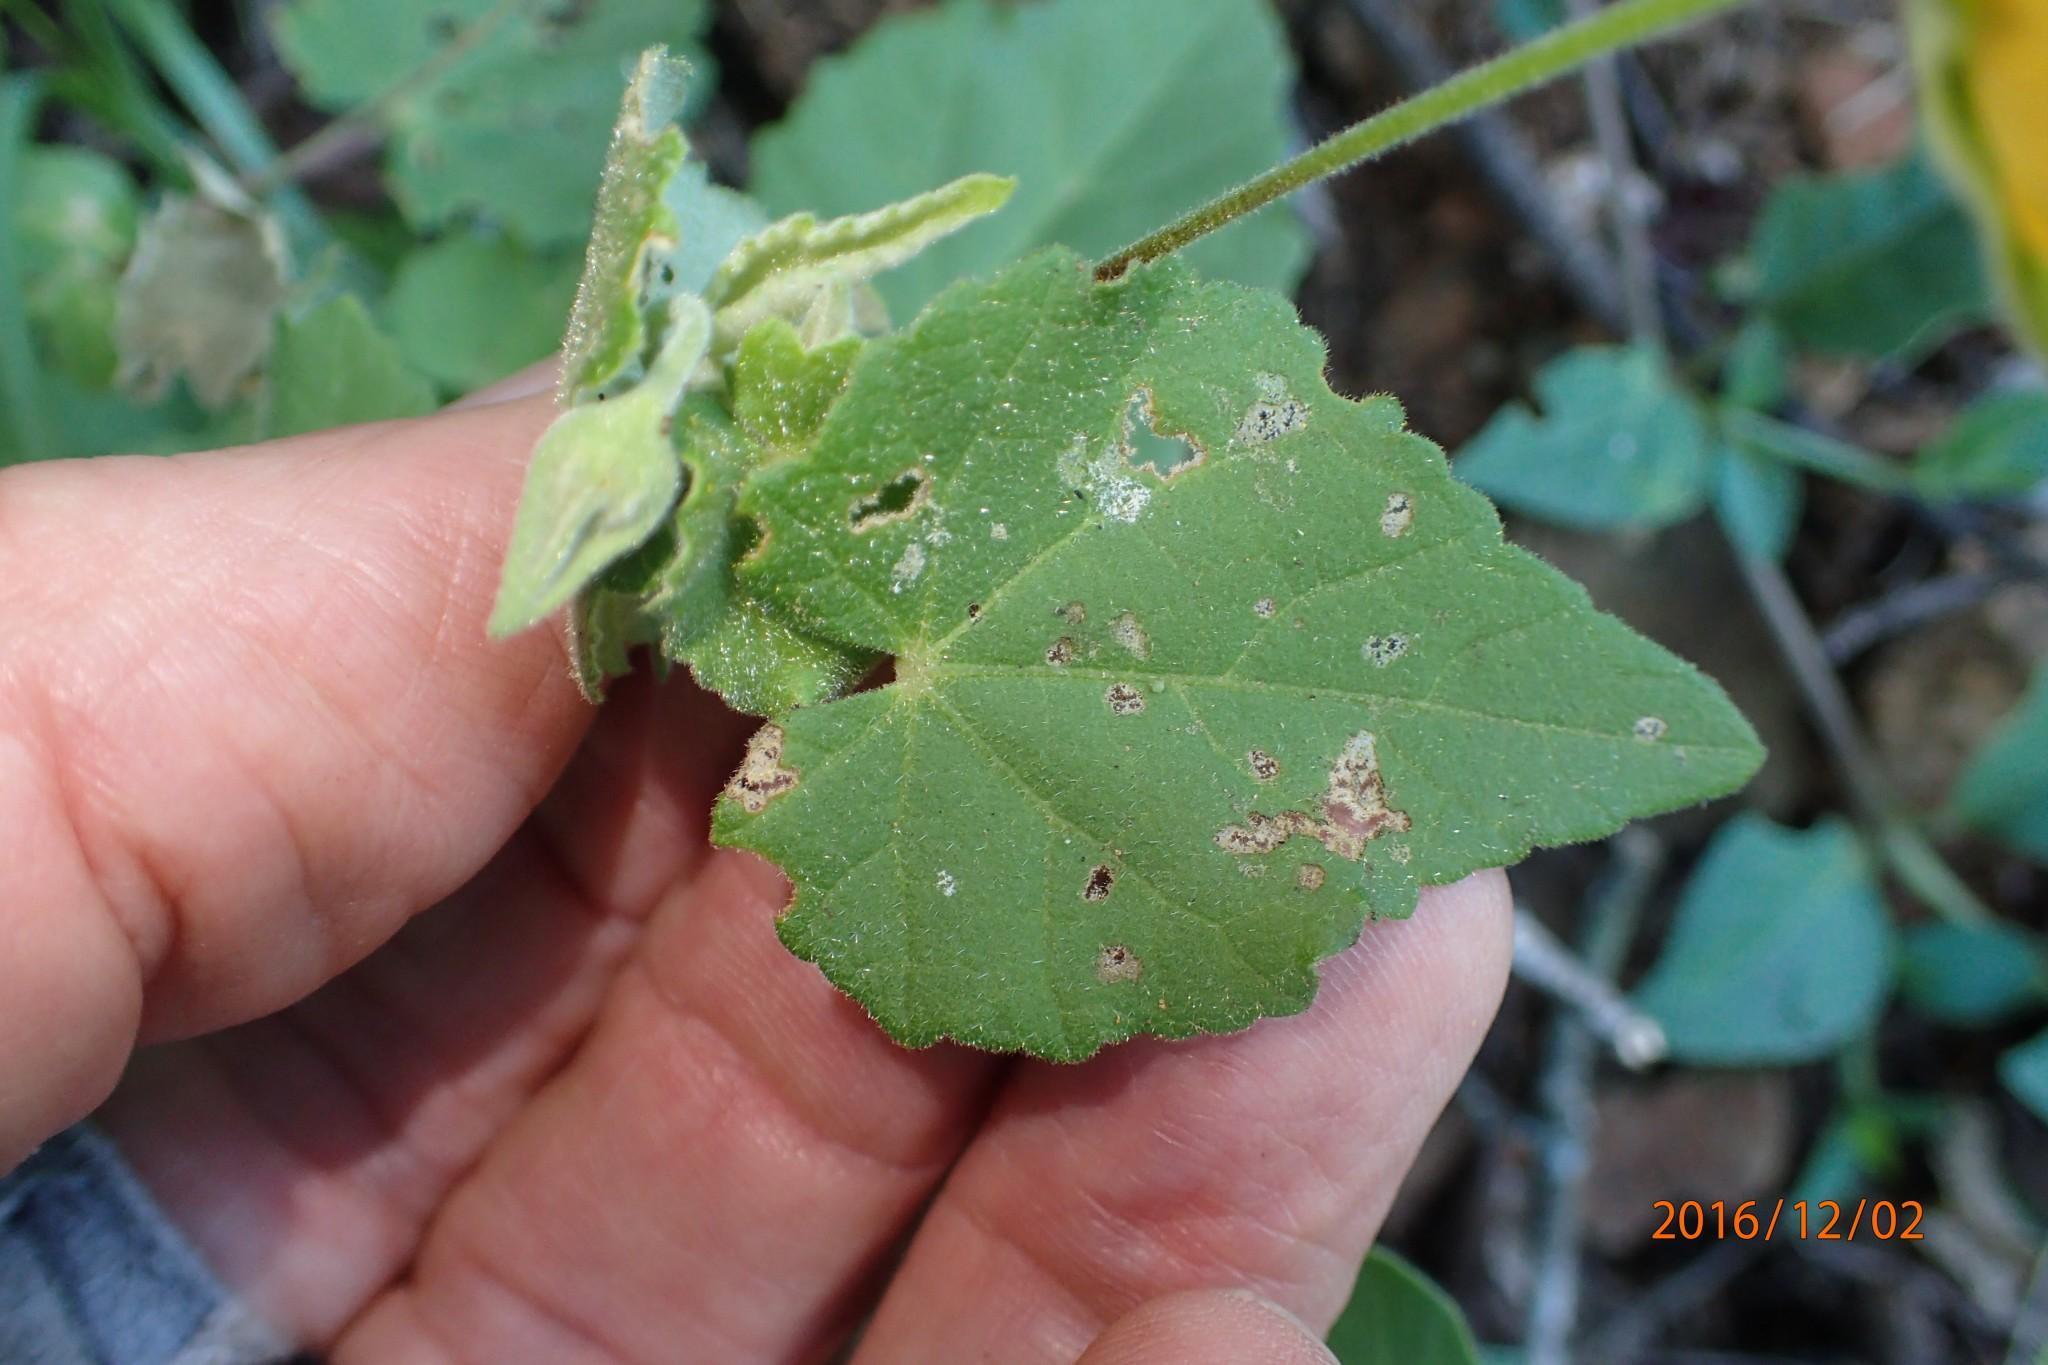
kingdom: Plantae
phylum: Tracheophyta
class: Magnoliopsida
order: Malvales
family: Malvaceae
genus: Abutilon
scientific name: Abutilon sonneratianum
